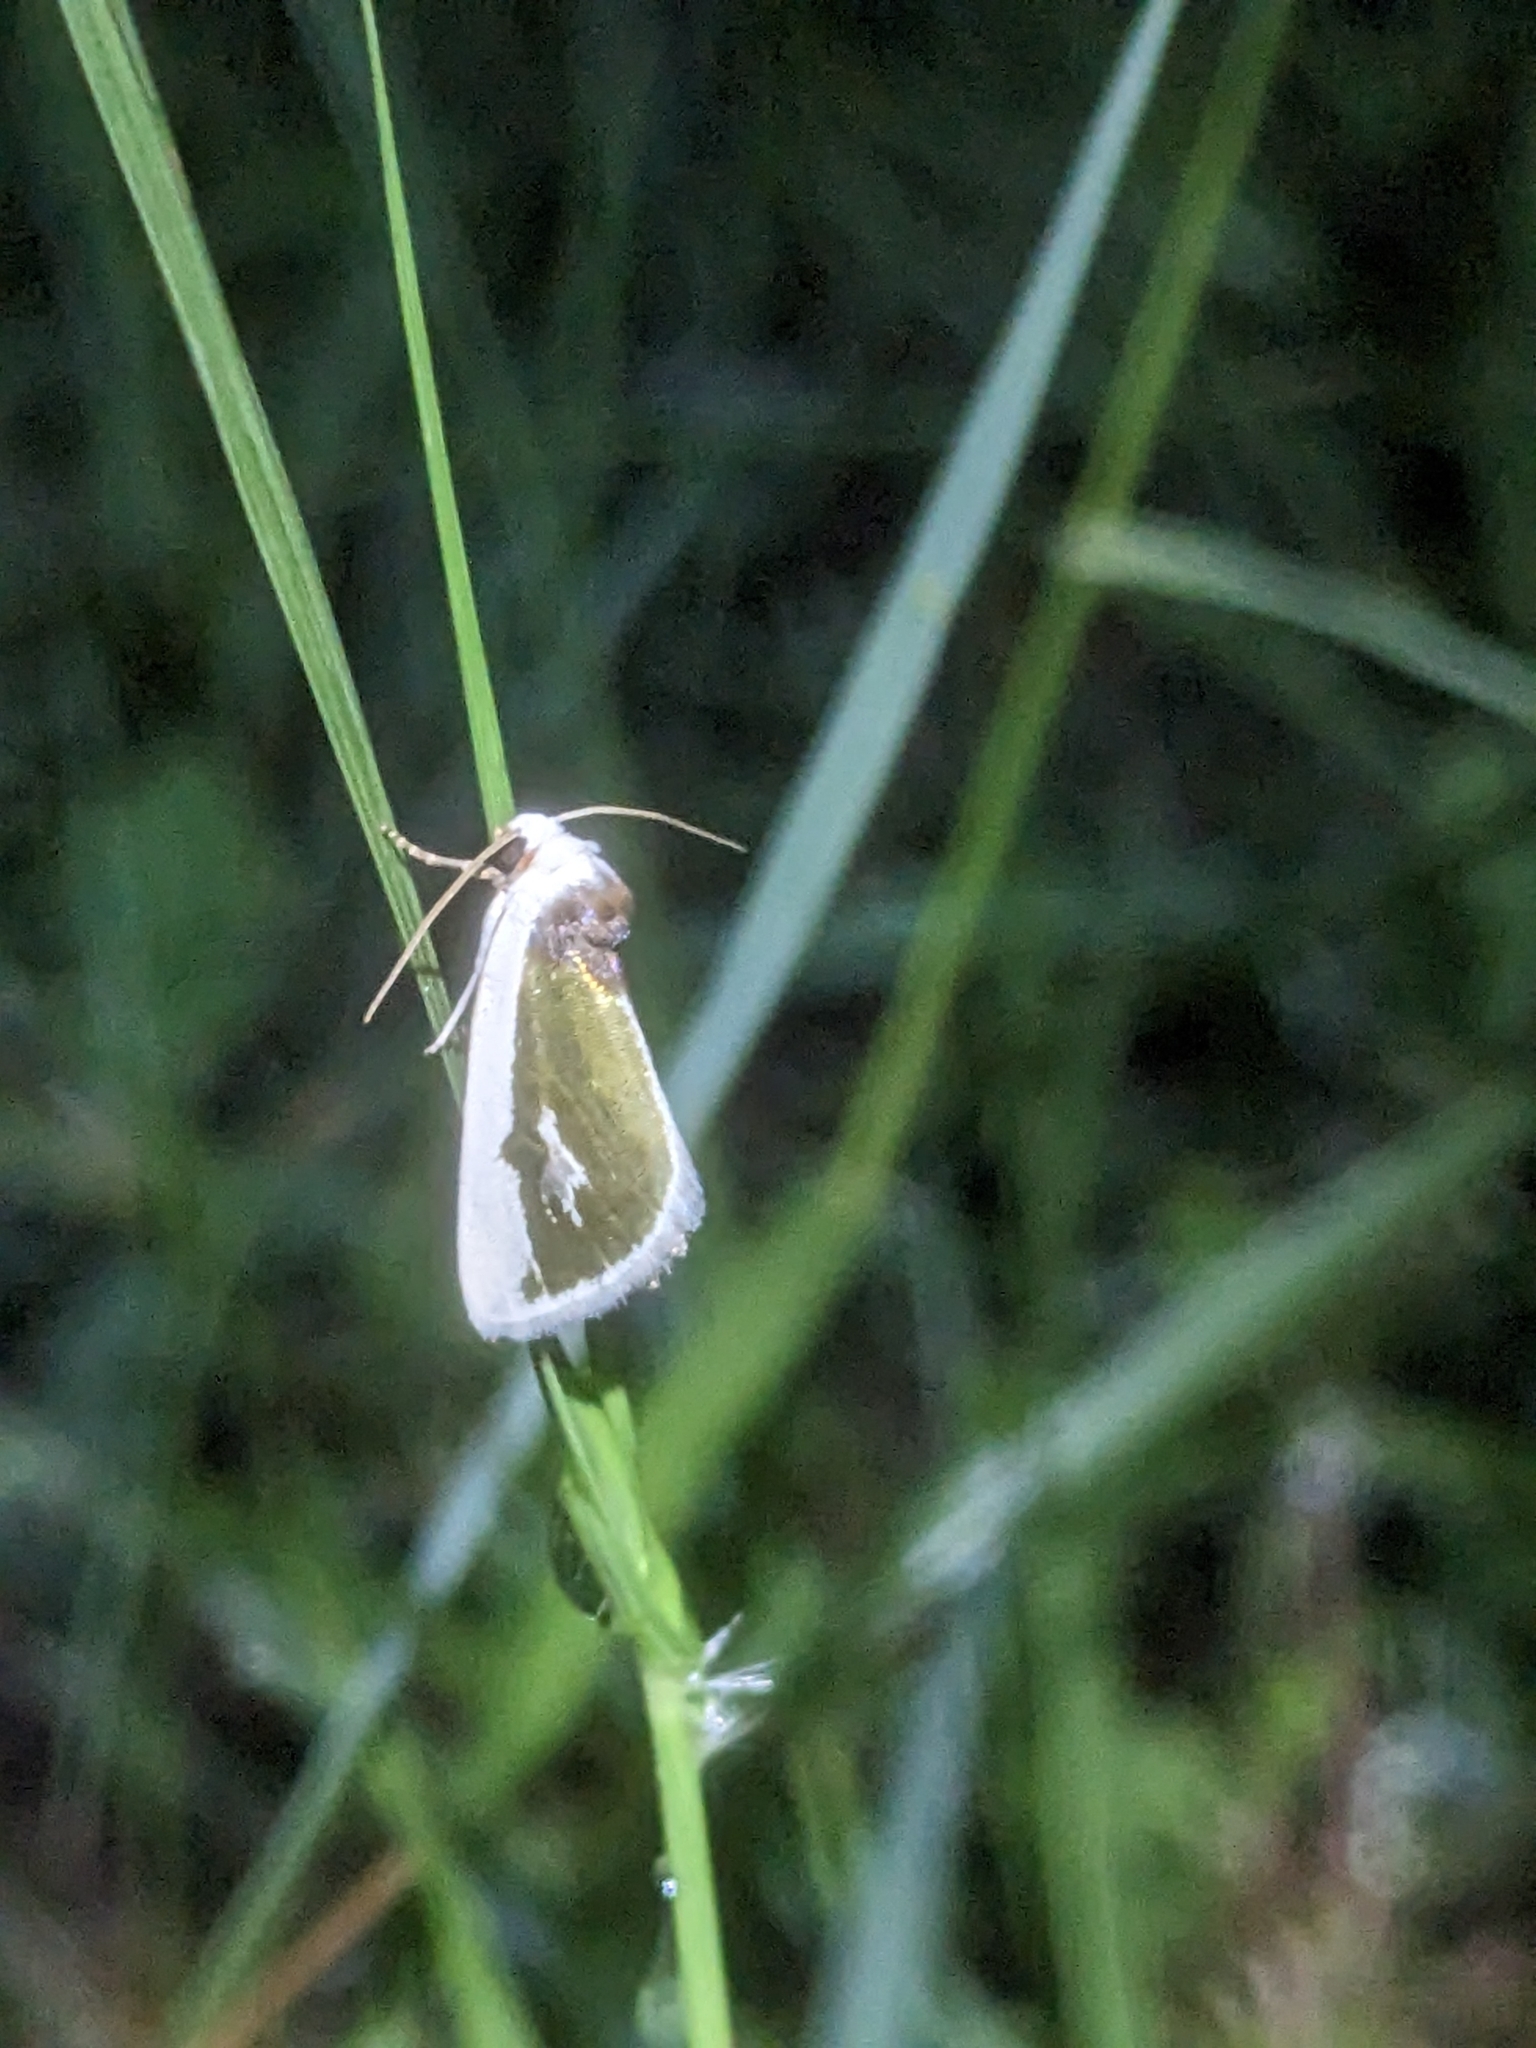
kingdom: Animalia
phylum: Arthropoda
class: Insecta
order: Lepidoptera
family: Noctuidae
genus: Neumoegenia
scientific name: Neumoegenia poetica
